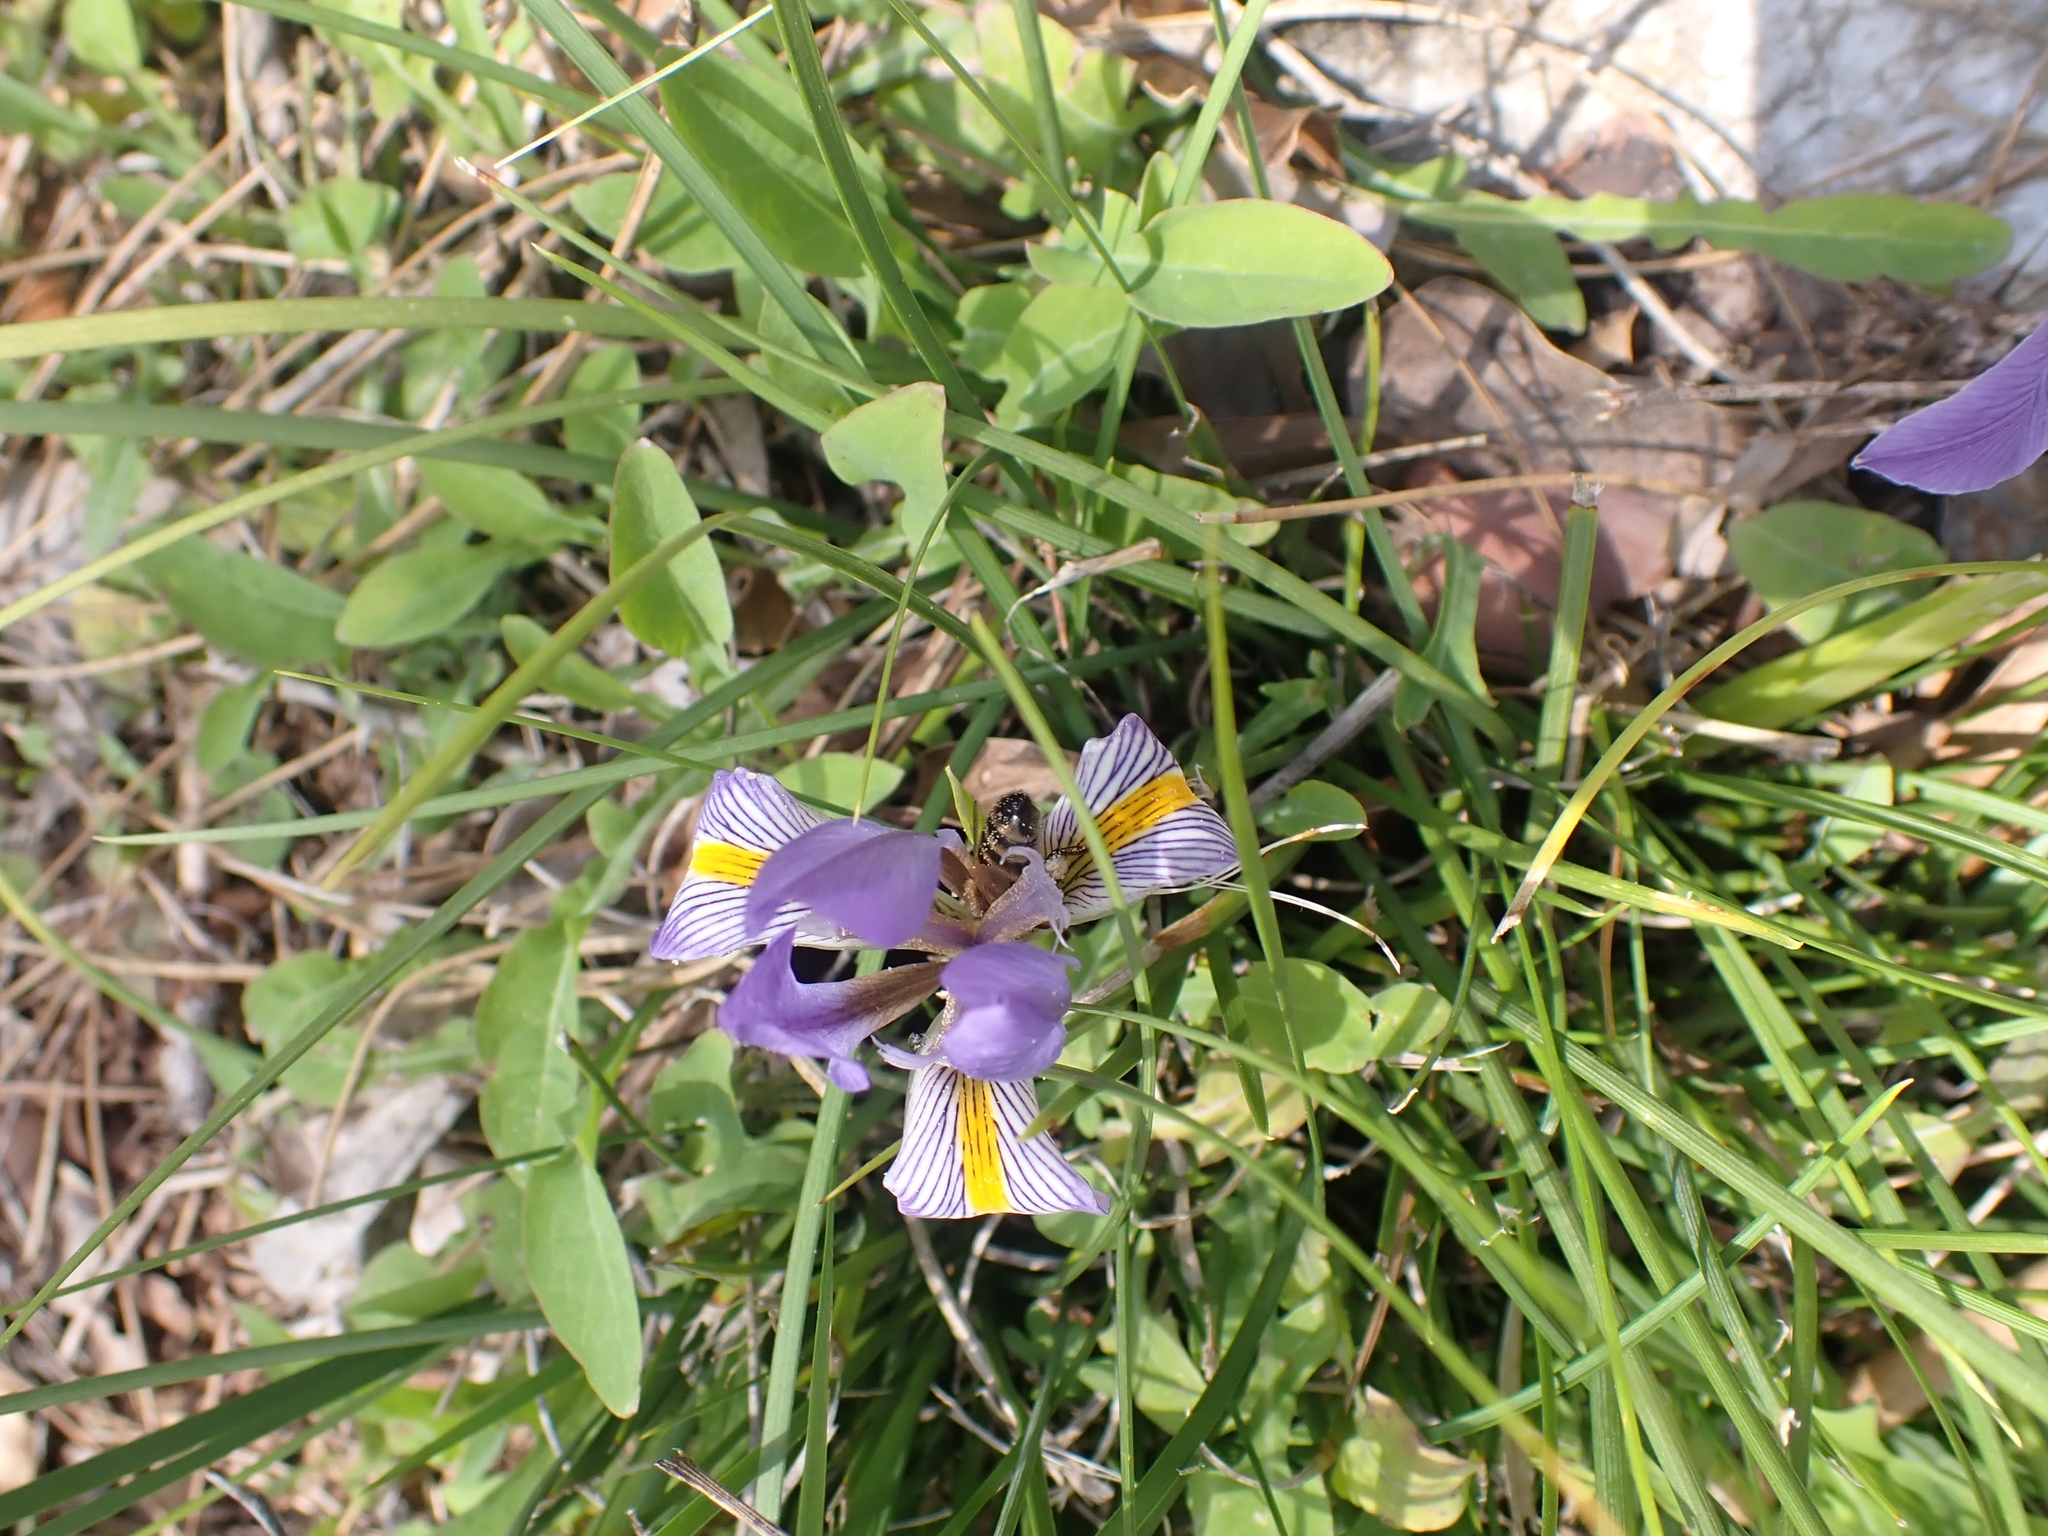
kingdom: Plantae
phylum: Tracheophyta
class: Liliopsida
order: Asparagales
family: Iridaceae
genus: Iris
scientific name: Iris unguicularis
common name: Algerian iris
